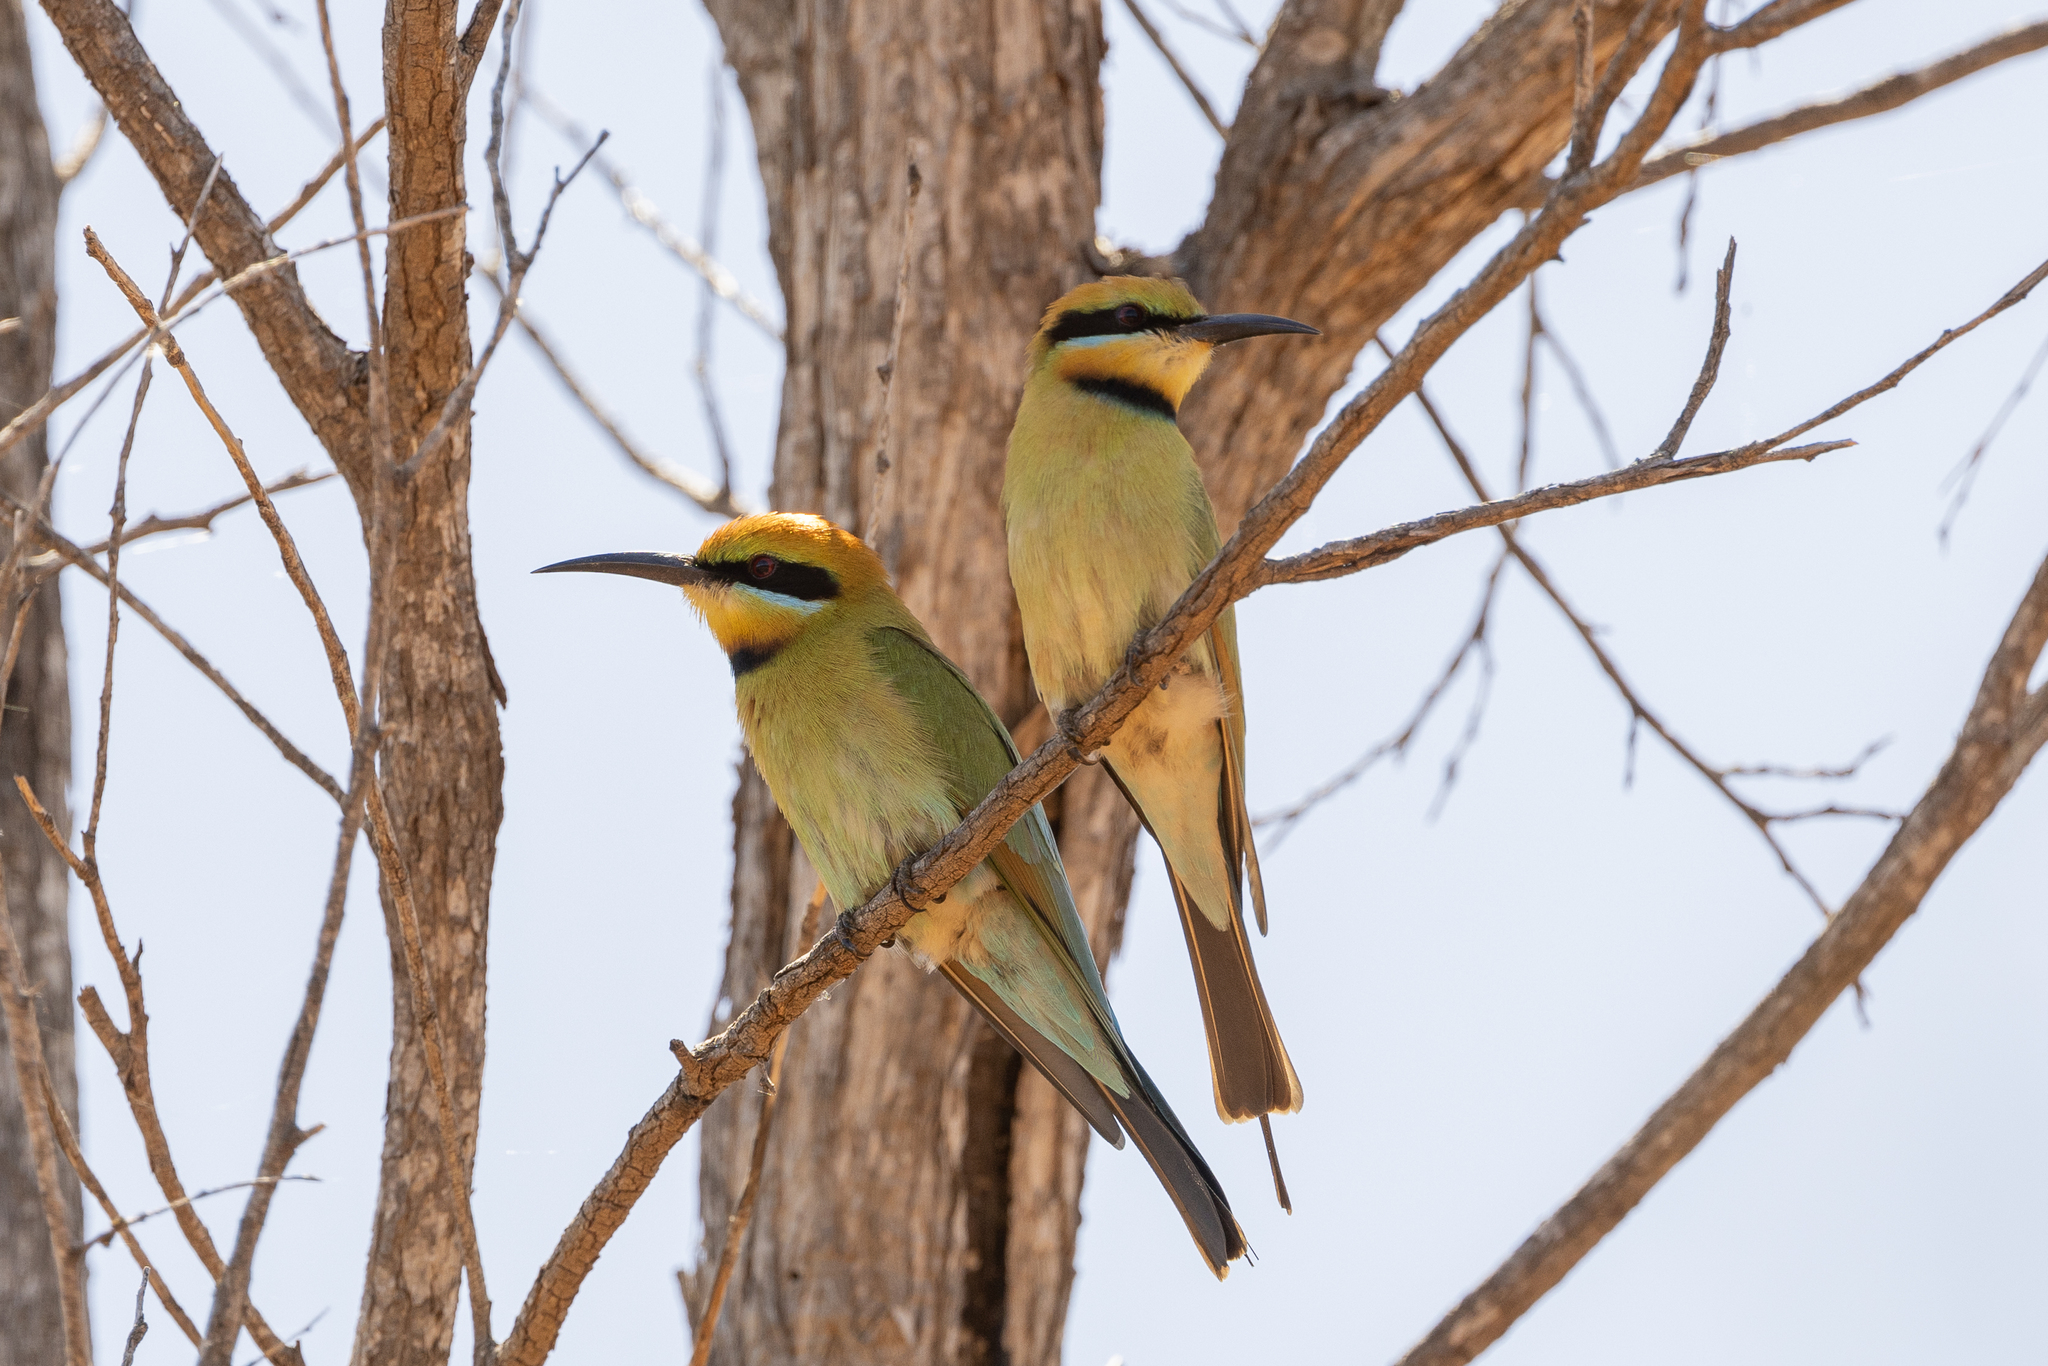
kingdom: Animalia
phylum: Chordata
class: Aves
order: Coraciiformes
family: Meropidae
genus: Merops
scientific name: Merops ornatus
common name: Rainbow bee-eater
